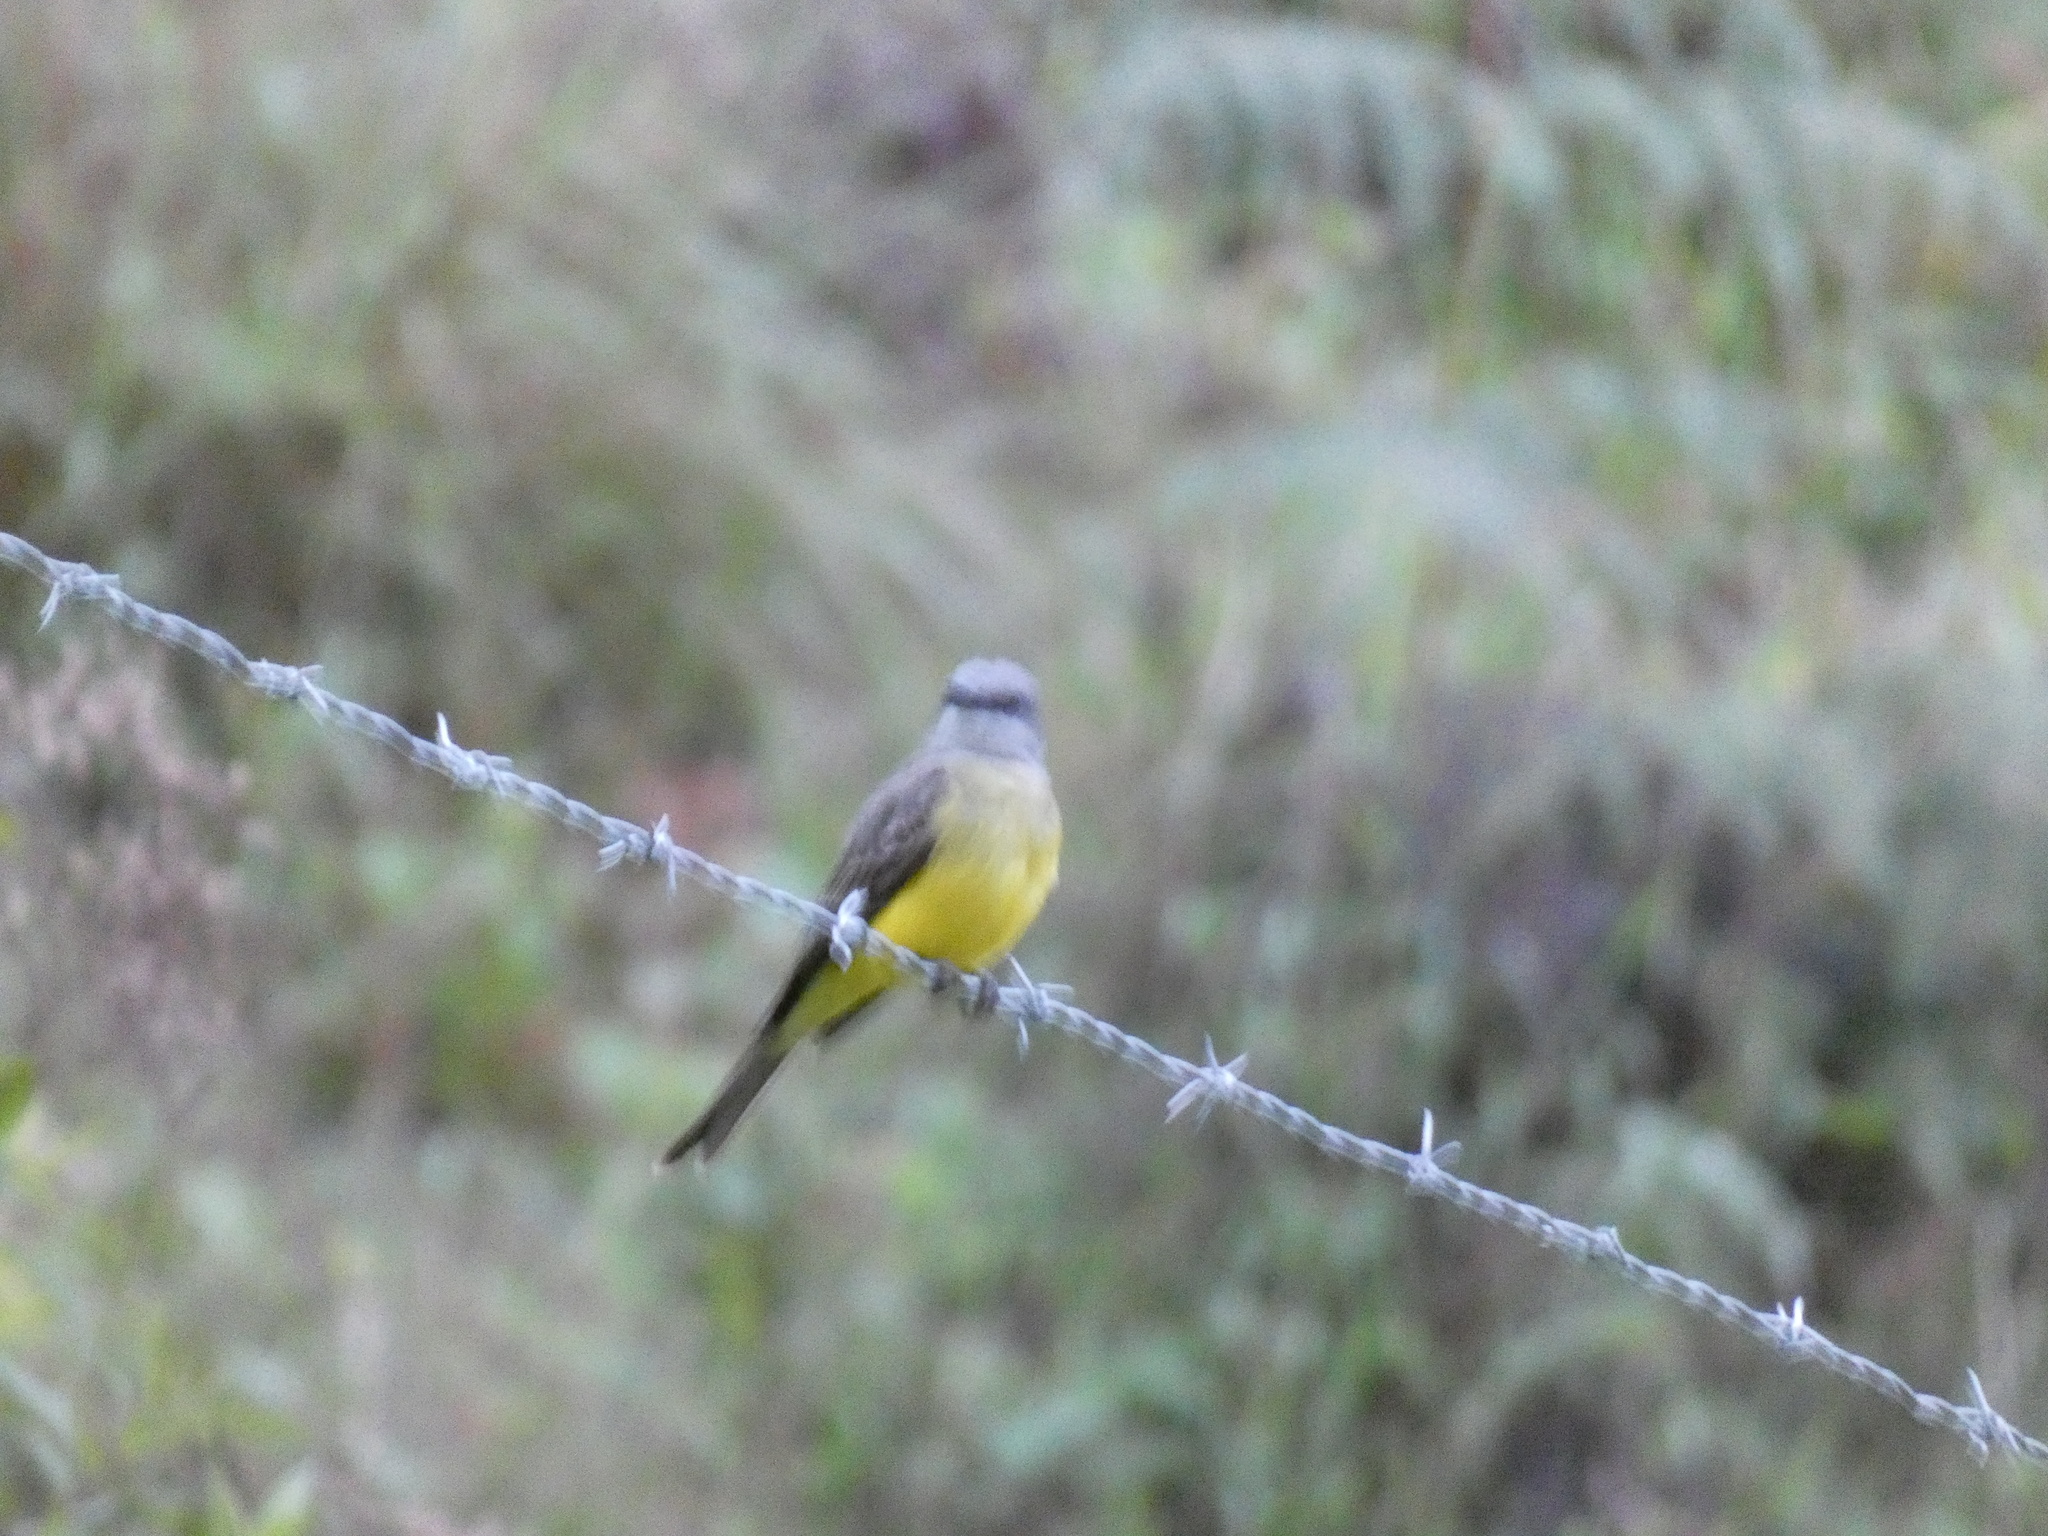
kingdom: Animalia
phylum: Chordata
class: Aves
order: Passeriformes
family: Tyrannidae
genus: Tyrannus
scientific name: Tyrannus melancholicus
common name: Tropical kingbird
